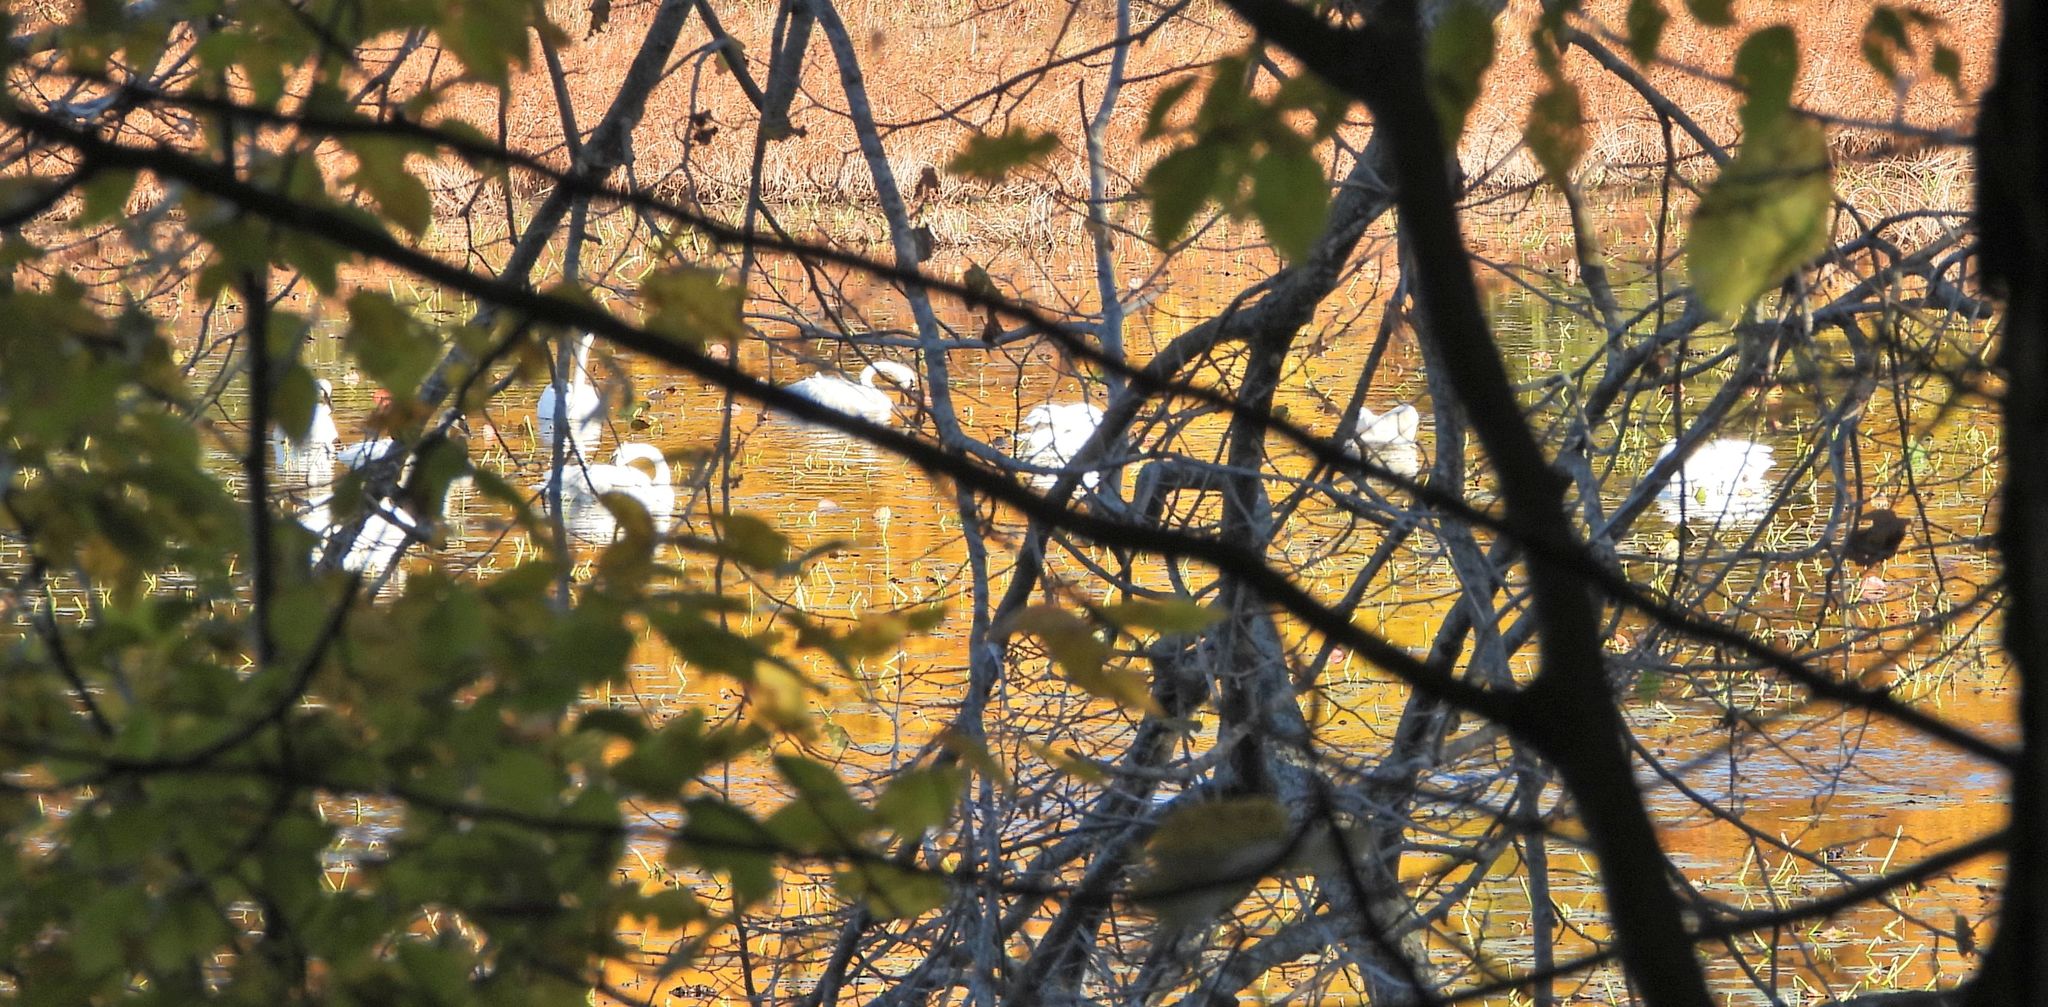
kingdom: Animalia
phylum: Chordata
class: Aves
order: Anseriformes
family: Anatidae
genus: Cygnus
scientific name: Cygnus buccinator
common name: Trumpeter swan
